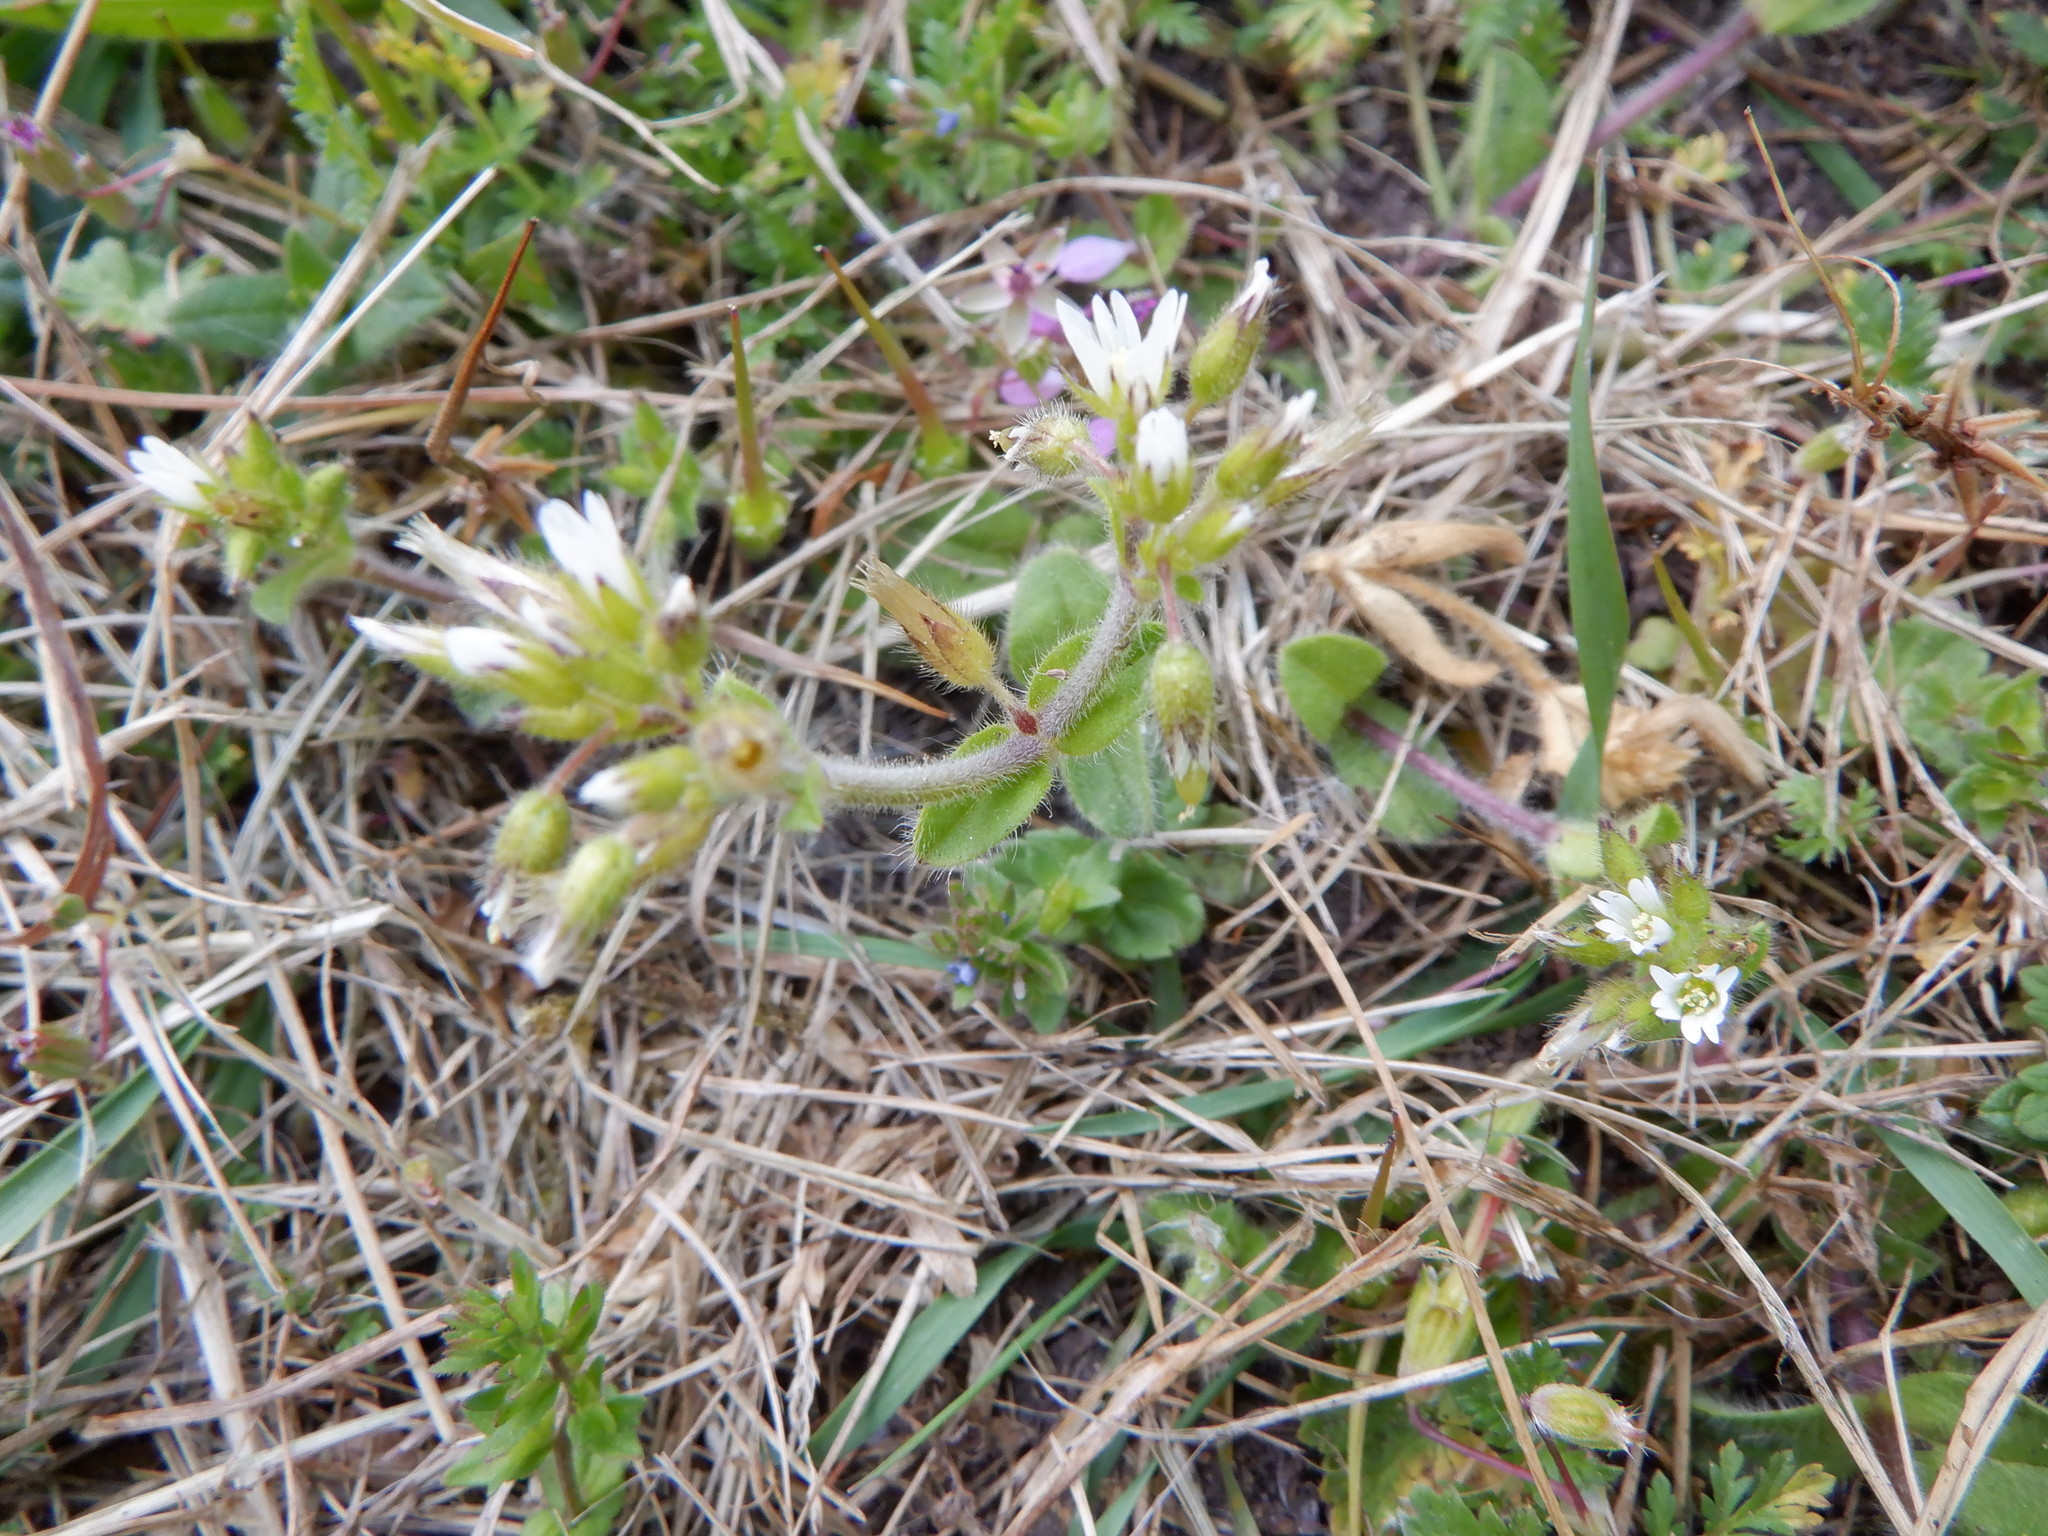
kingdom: Plantae
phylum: Tracheophyta
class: Magnoliopsida
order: Caryophyllales
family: Caryophyllaceae
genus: Cerastium
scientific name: Cerastium glomeratum
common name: Sticky chickweed
